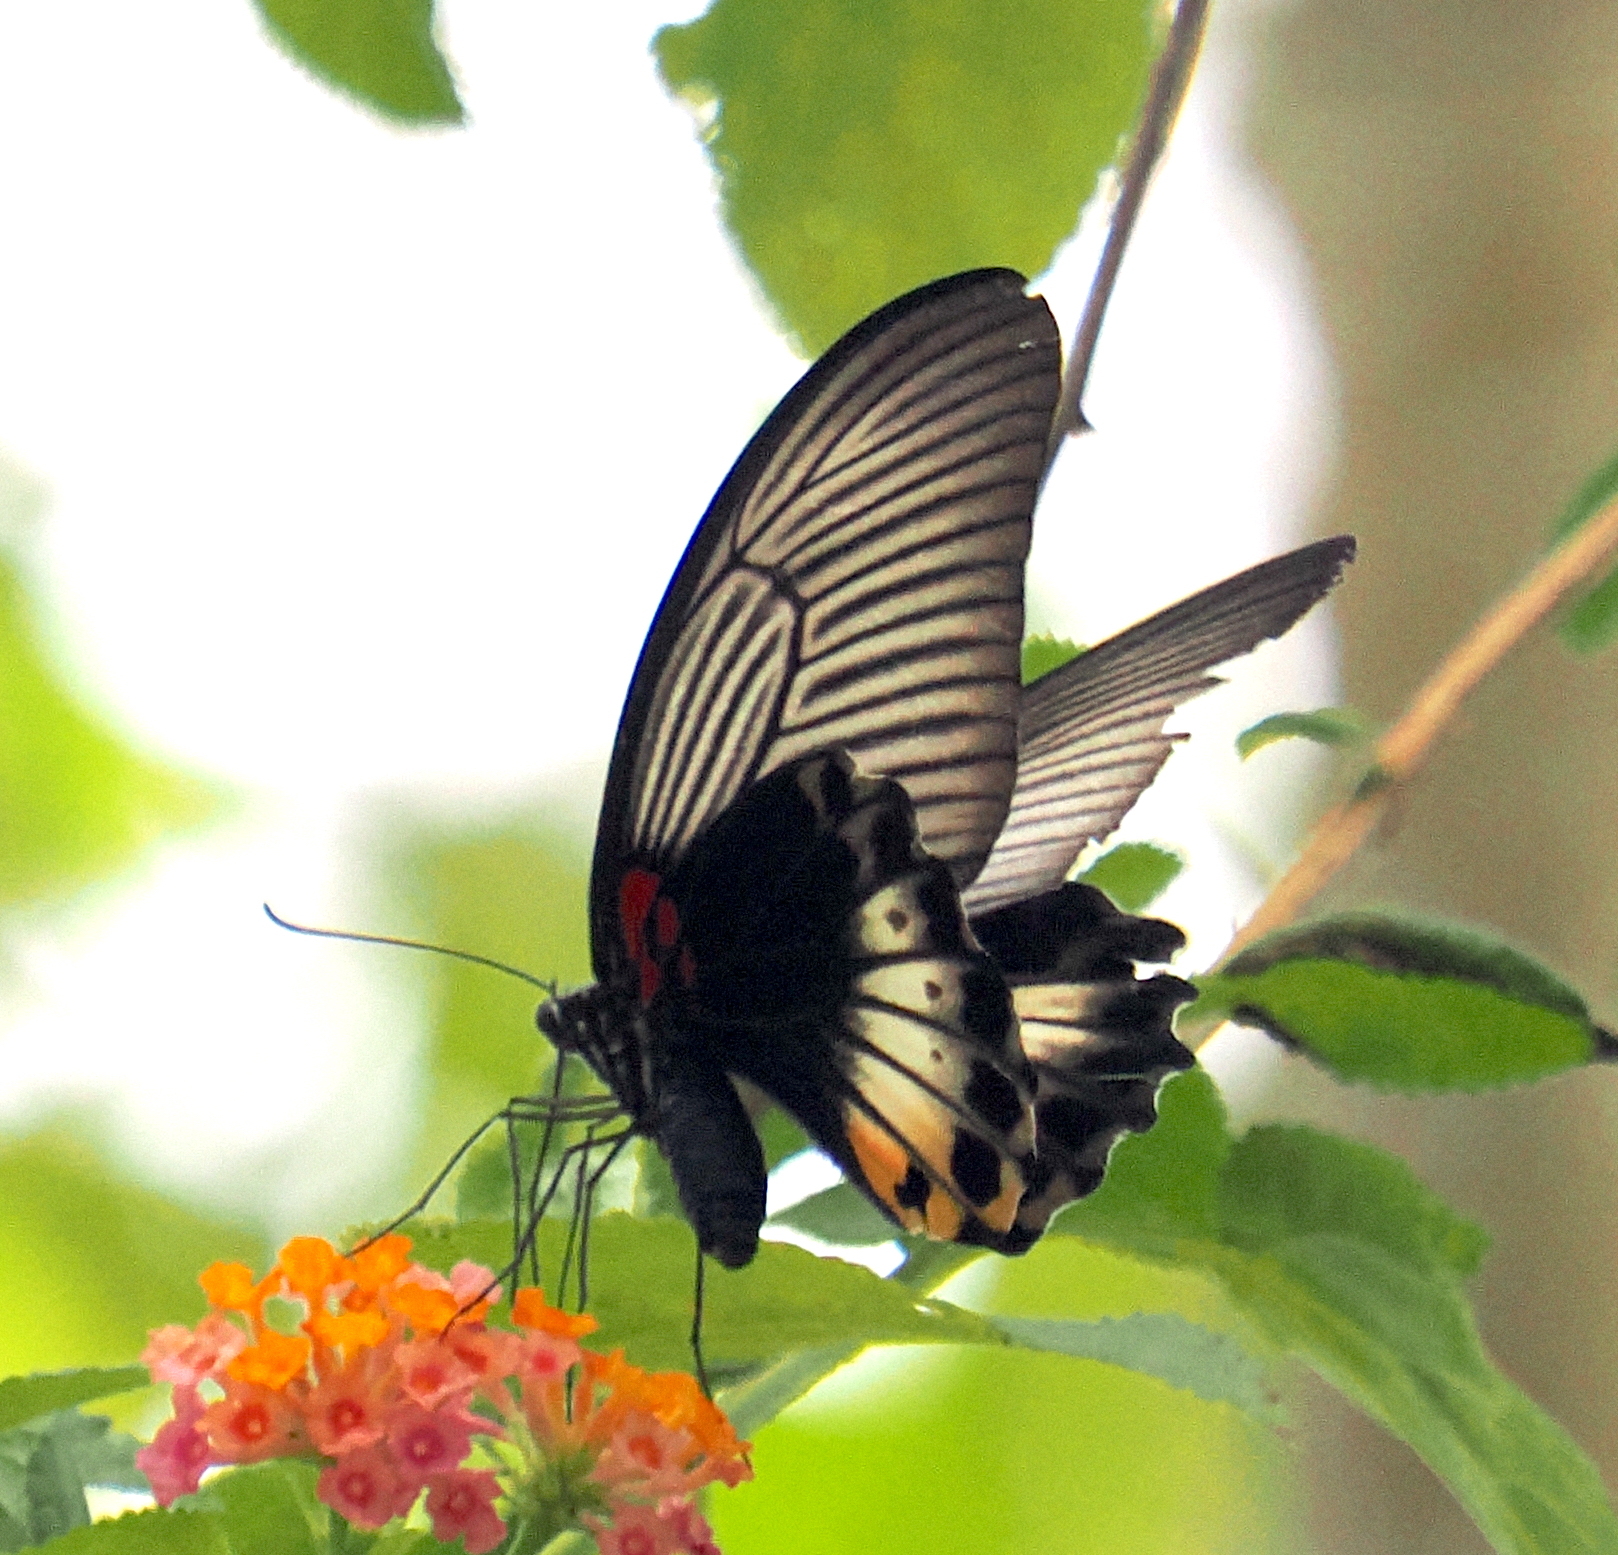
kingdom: Animalia
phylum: Arthropoda
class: Insecta
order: Lepidoptera
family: Papilionidae
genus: Papilio
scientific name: Papilio memnon
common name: Great mormon
